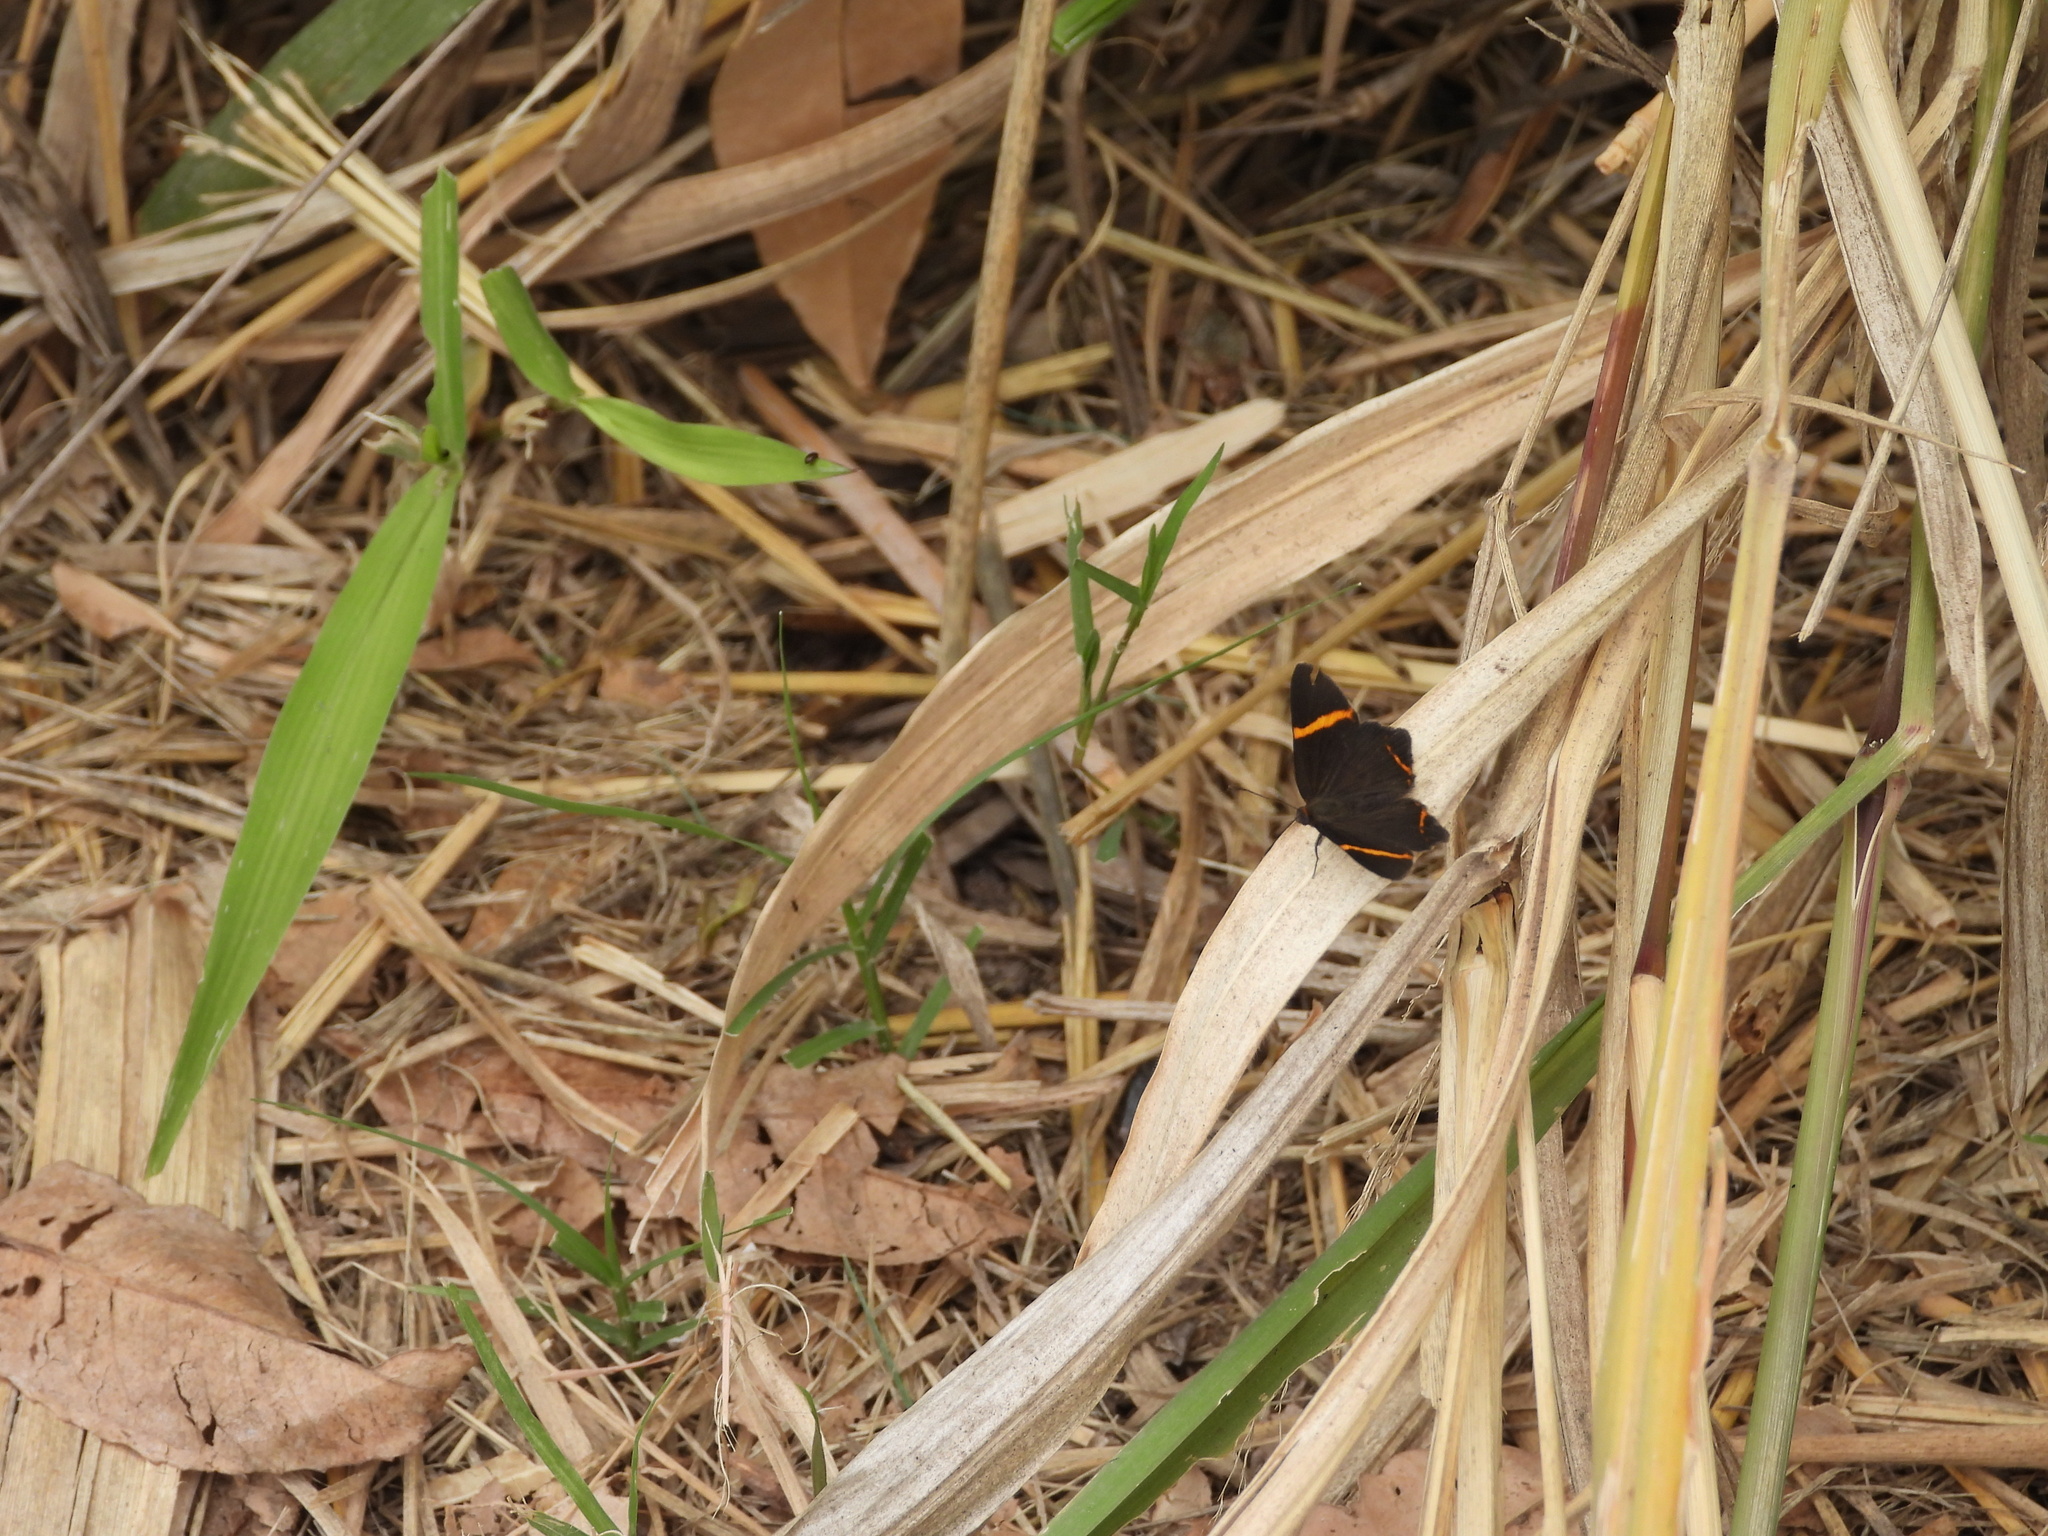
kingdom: Animalia
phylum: Arthropoda
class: Insecta
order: Lepidoptera
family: Riodinidae
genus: Riodina
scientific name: Riodina lysippoides
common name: Little dancer metalmark
